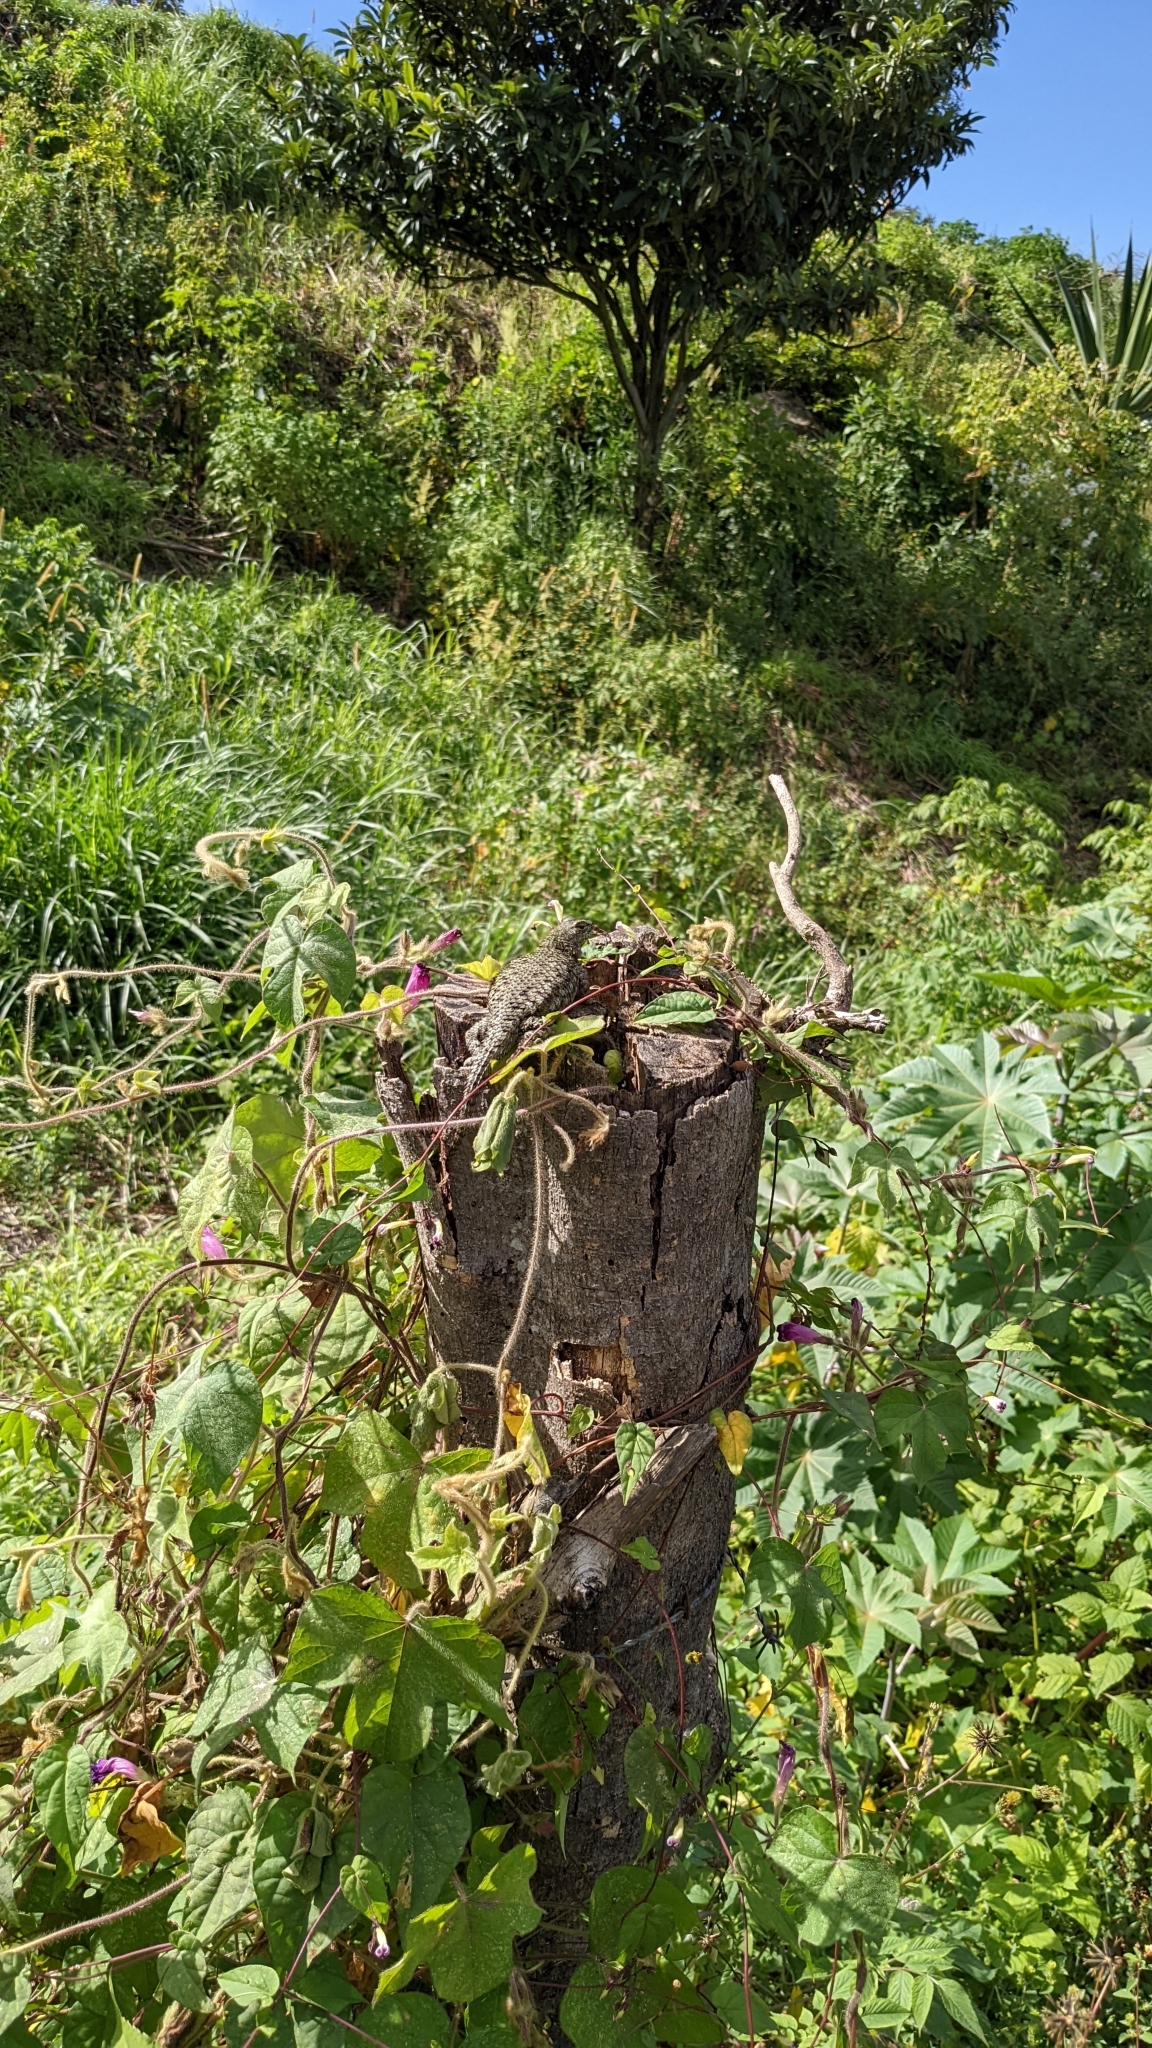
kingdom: Animalia
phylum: Chordata
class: Squamata
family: Phrynosomatidae
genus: Sceloporus
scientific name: Sceloporus malachiticus
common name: Green spiny lizard
